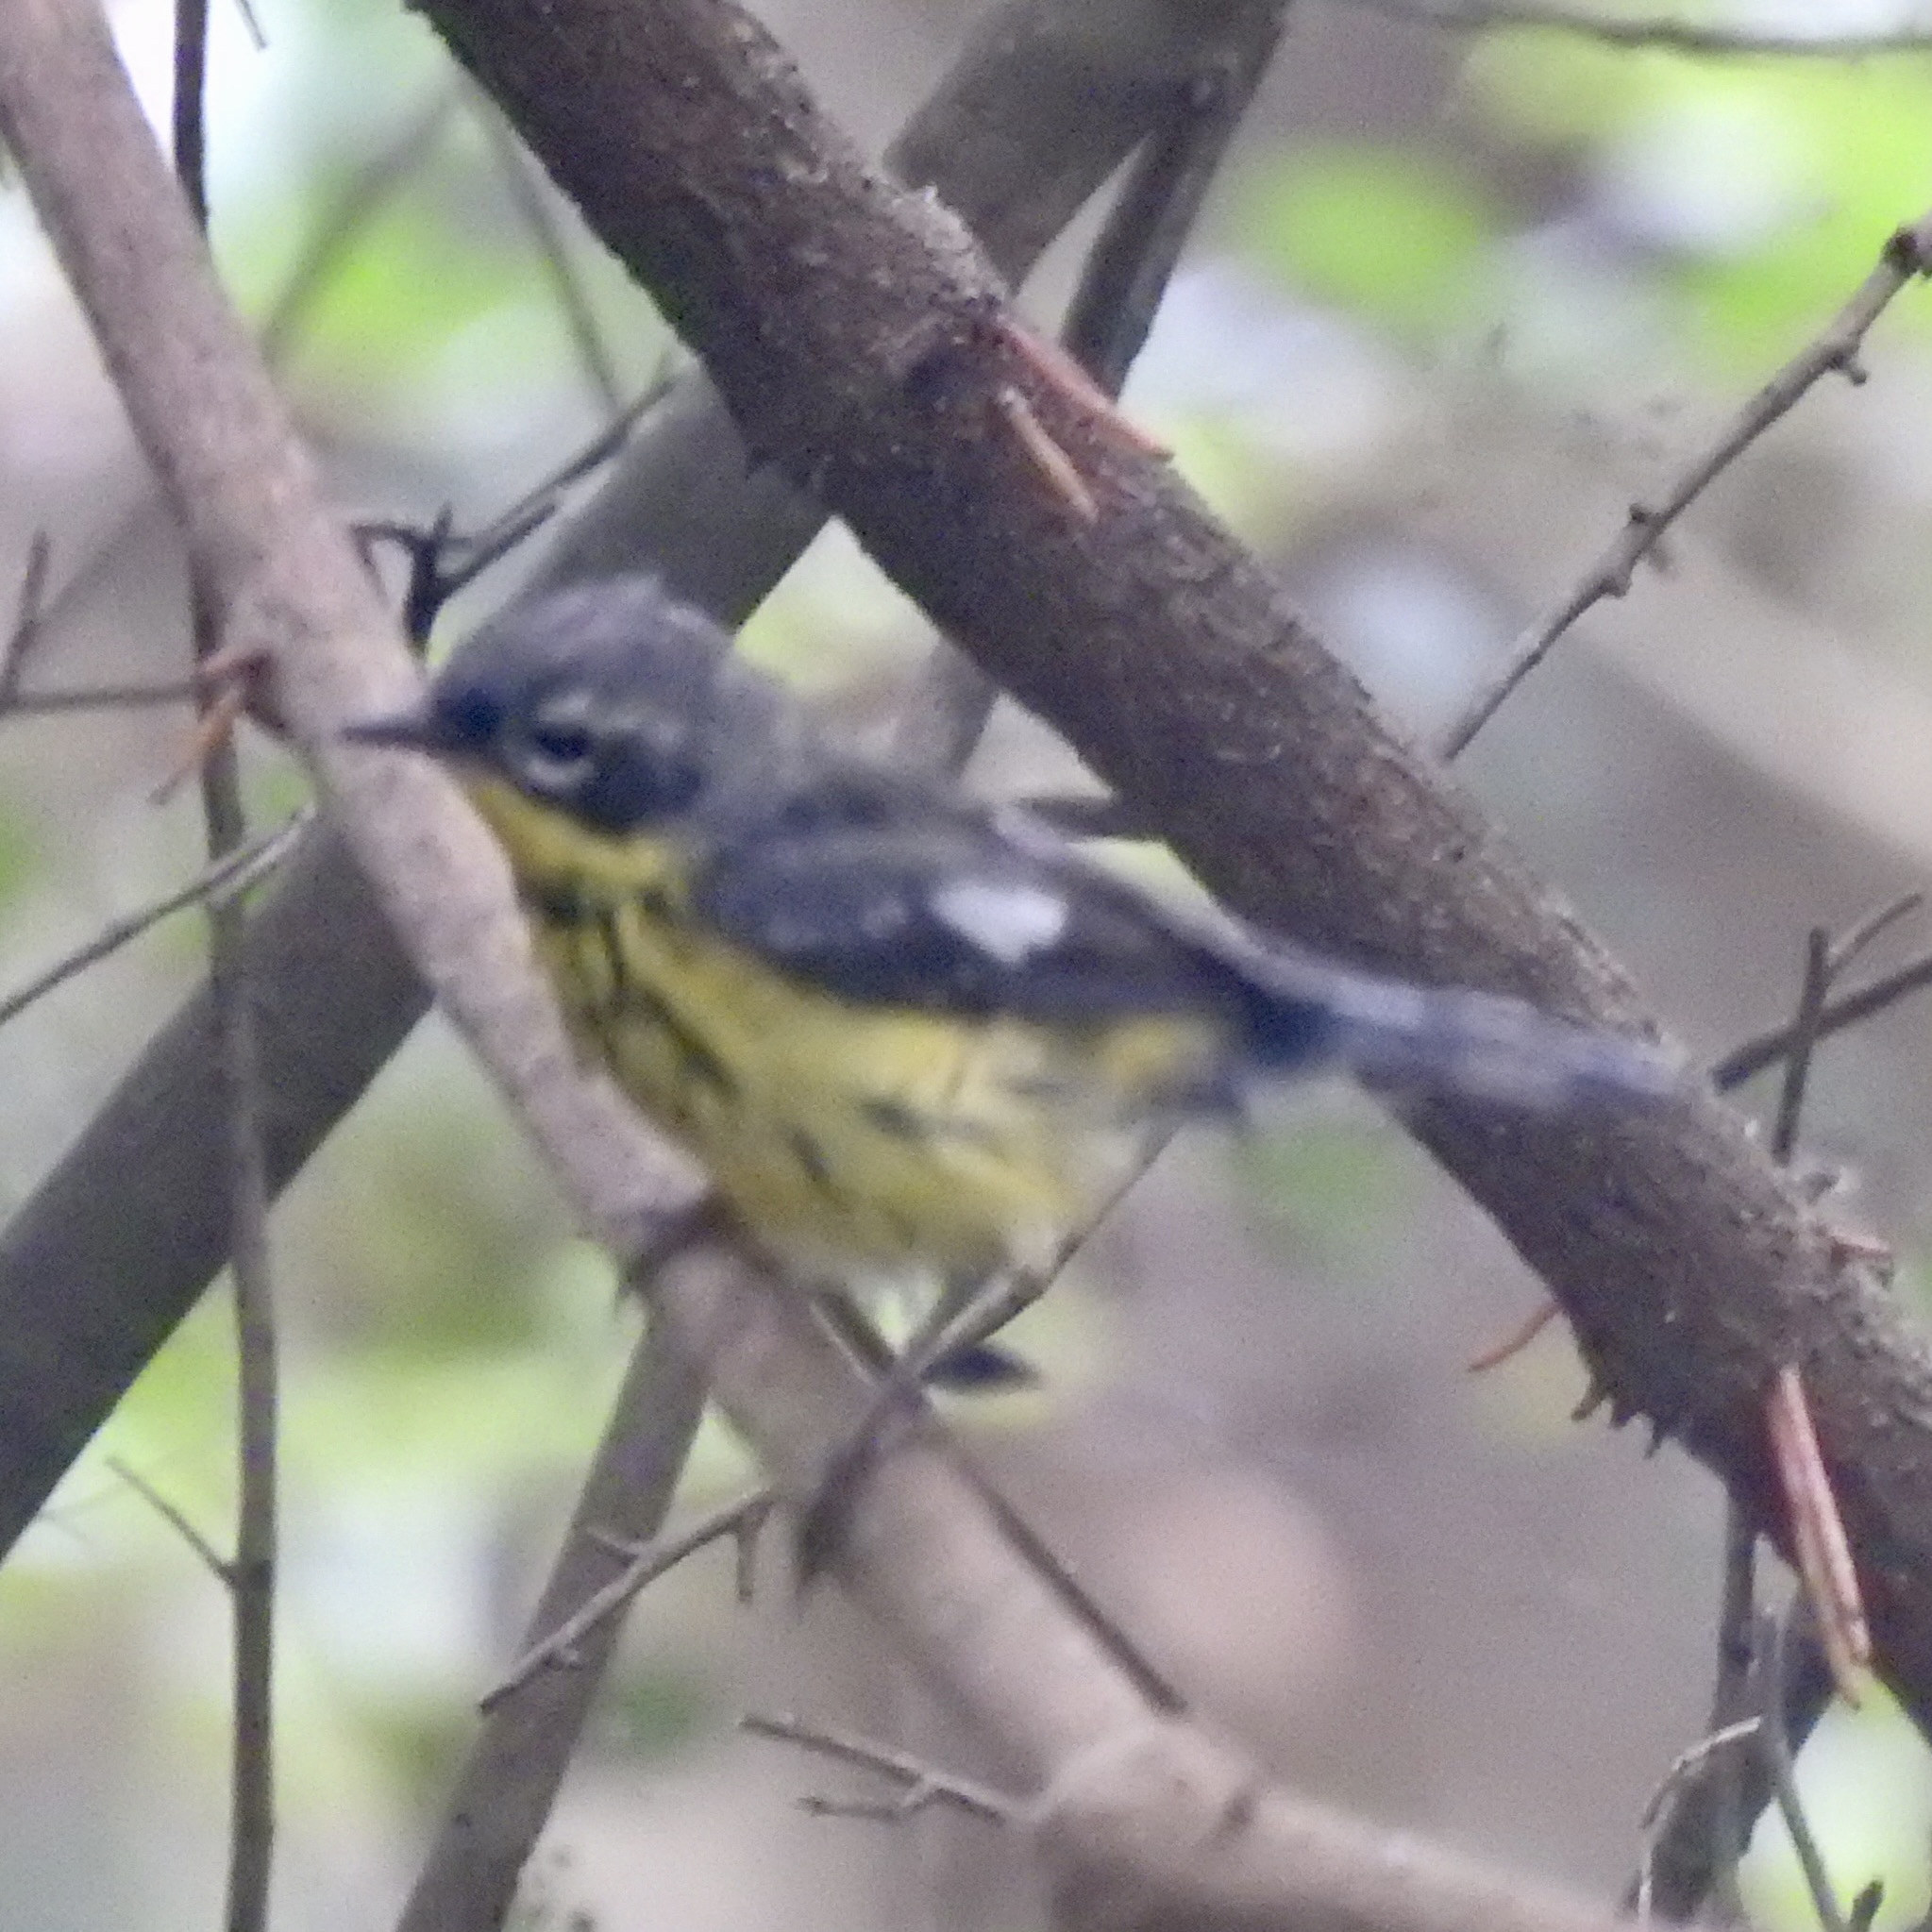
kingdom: Animalia
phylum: Chordata
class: Aves
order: Passeriformes
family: Parulidae
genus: Setophaga
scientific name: Setophaga magnolia
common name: Magnolia warbler
